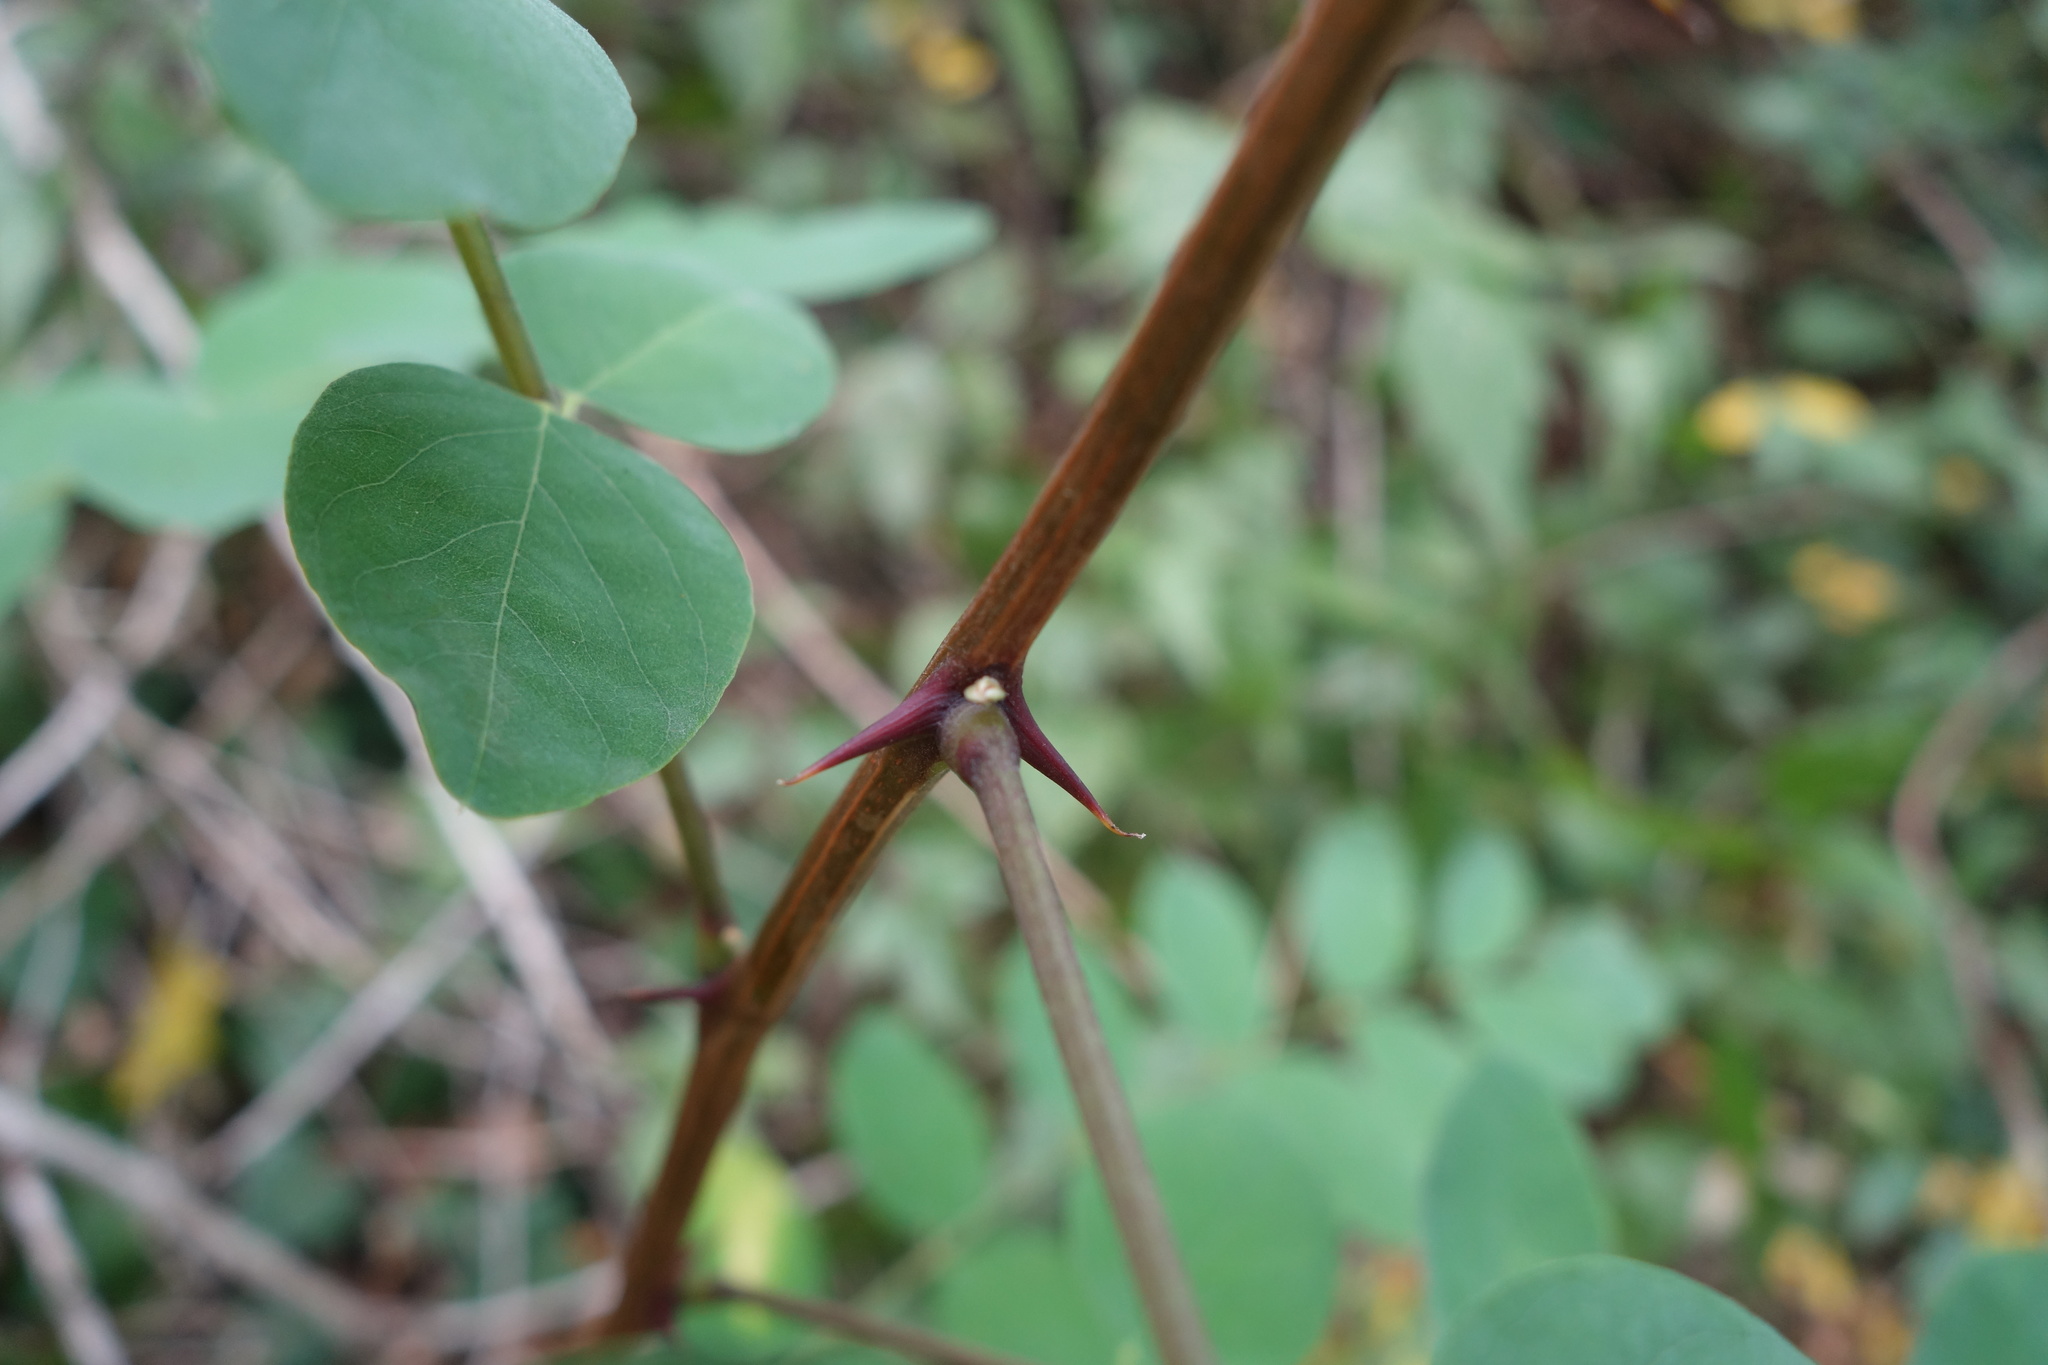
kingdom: Plantae
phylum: Tracheophyta
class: Magnoliopsida
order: Fabales
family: Fabaceae
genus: Robinia
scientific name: Robinia pseudoacacia
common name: Black locust
